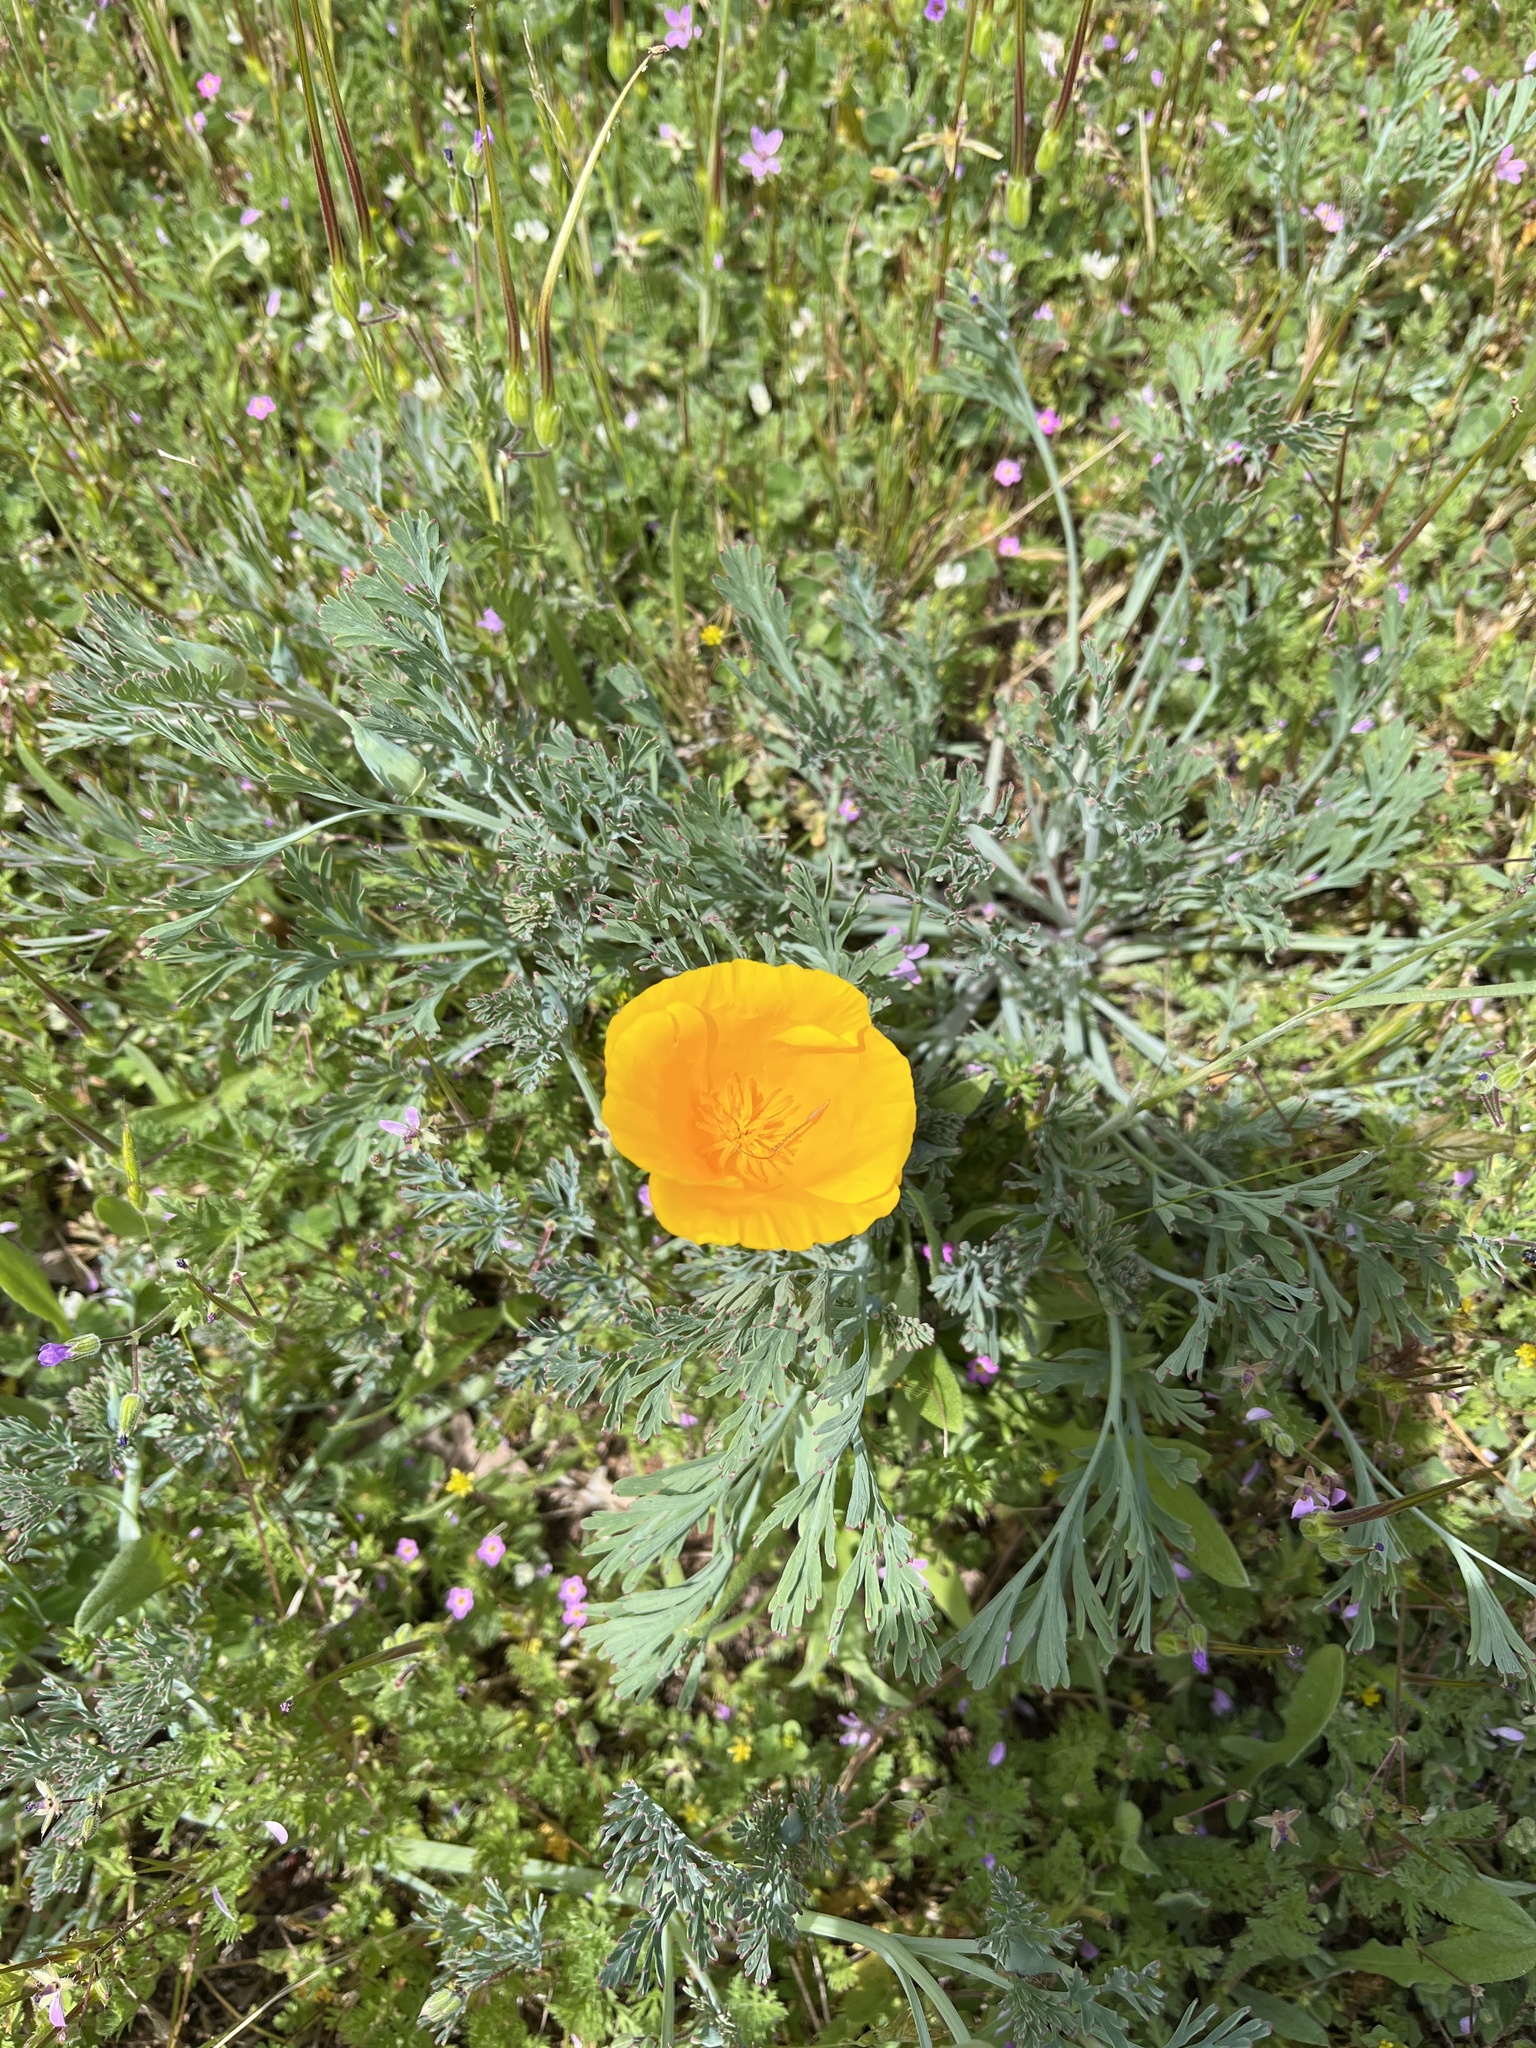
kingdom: Plantae
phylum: Tracheophyta
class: Magnoliopsida
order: Ranunculales
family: Papaveraceae
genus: Eschscholzia
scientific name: Eschscholzia californica
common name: California poppy
